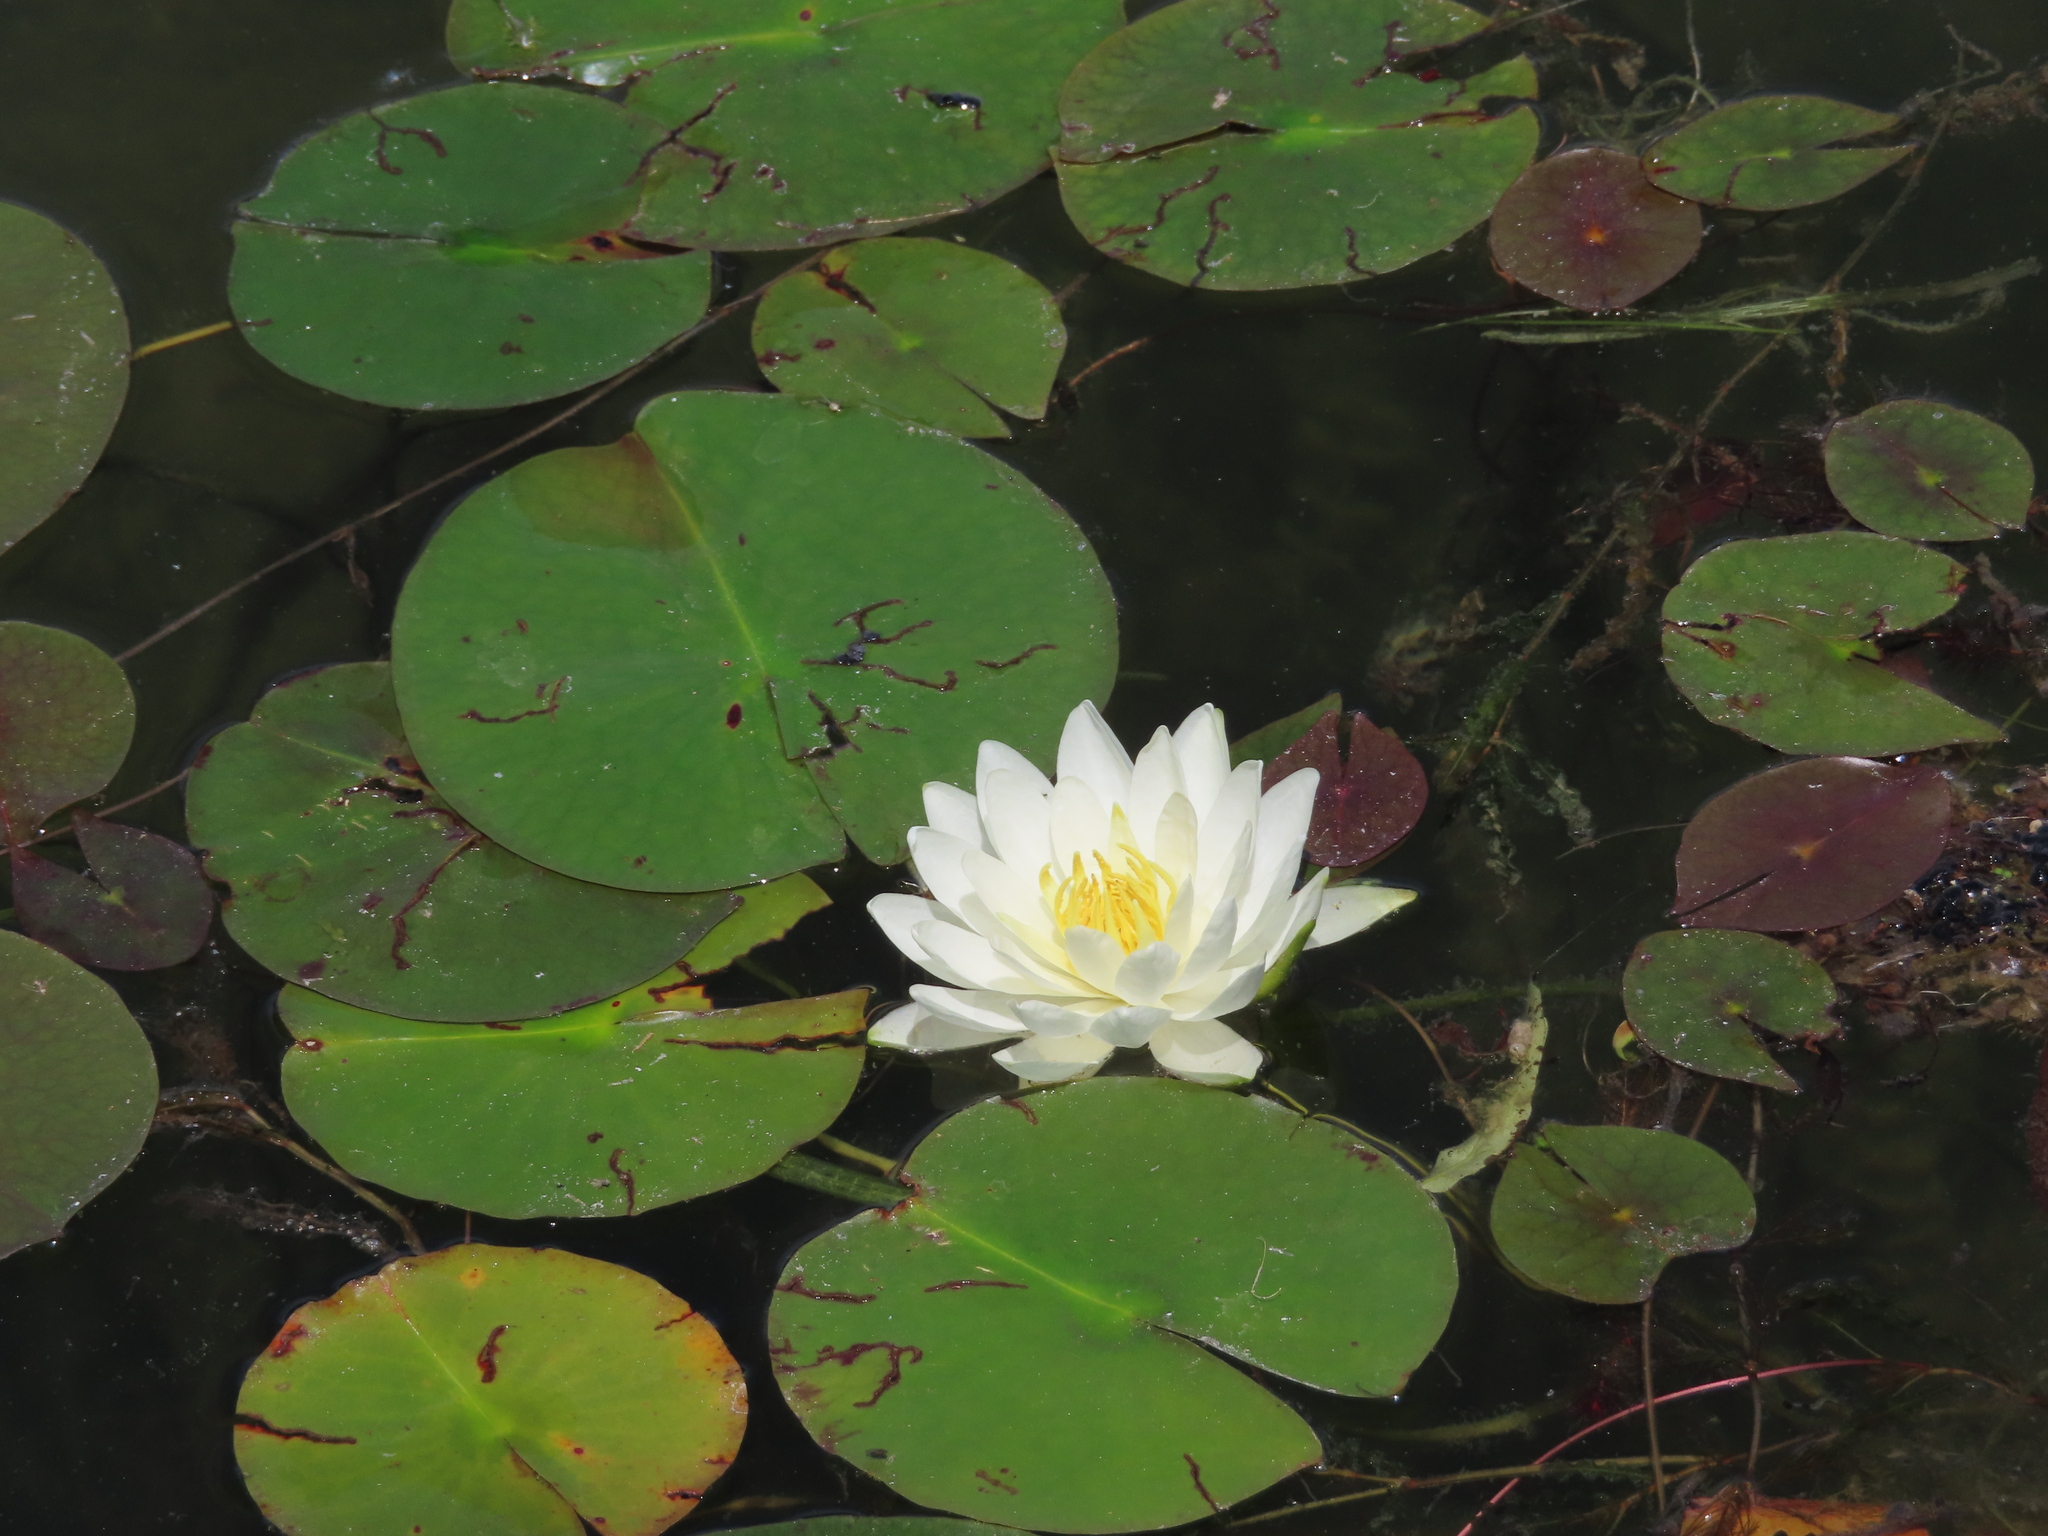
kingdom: Plantae
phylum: Tracheophyta
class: Magnoliopsida
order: Nymphaeales
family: Nymphaeaceae
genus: Nymphaea
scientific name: Nymphaea odorata
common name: Fragrant water-lily
